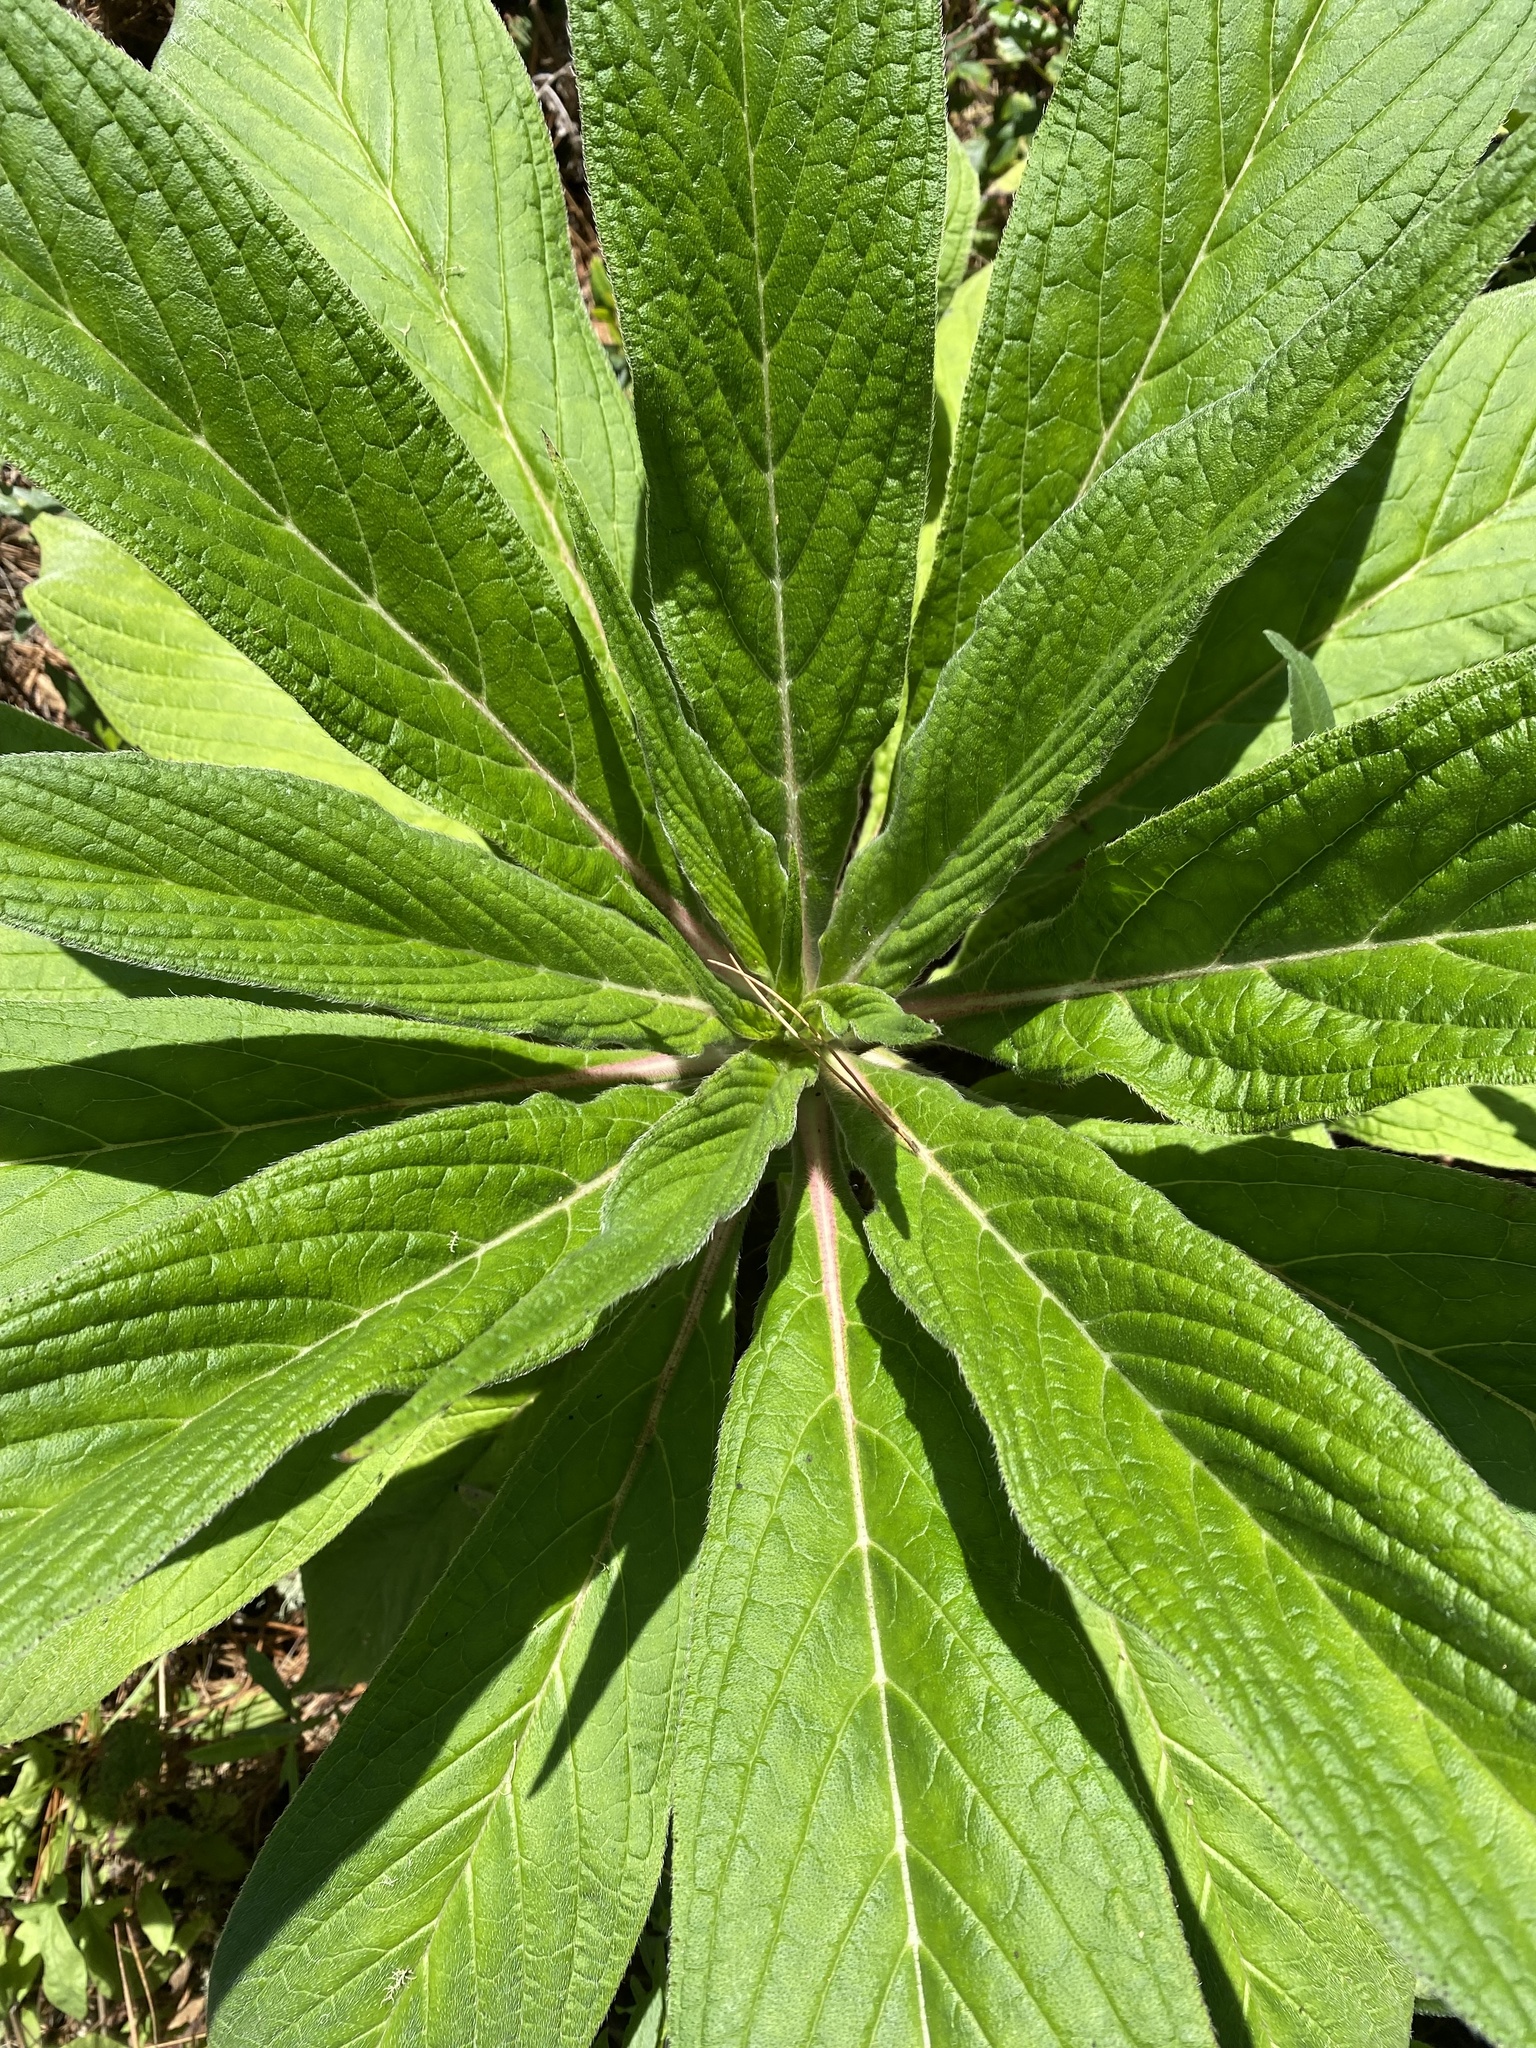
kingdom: Plantae
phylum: Tracheophyta
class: Magnoliopsida
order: Boraginales
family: Boraginaceae
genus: Echium
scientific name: Echium pininana
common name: Giant viper's-bugloss
